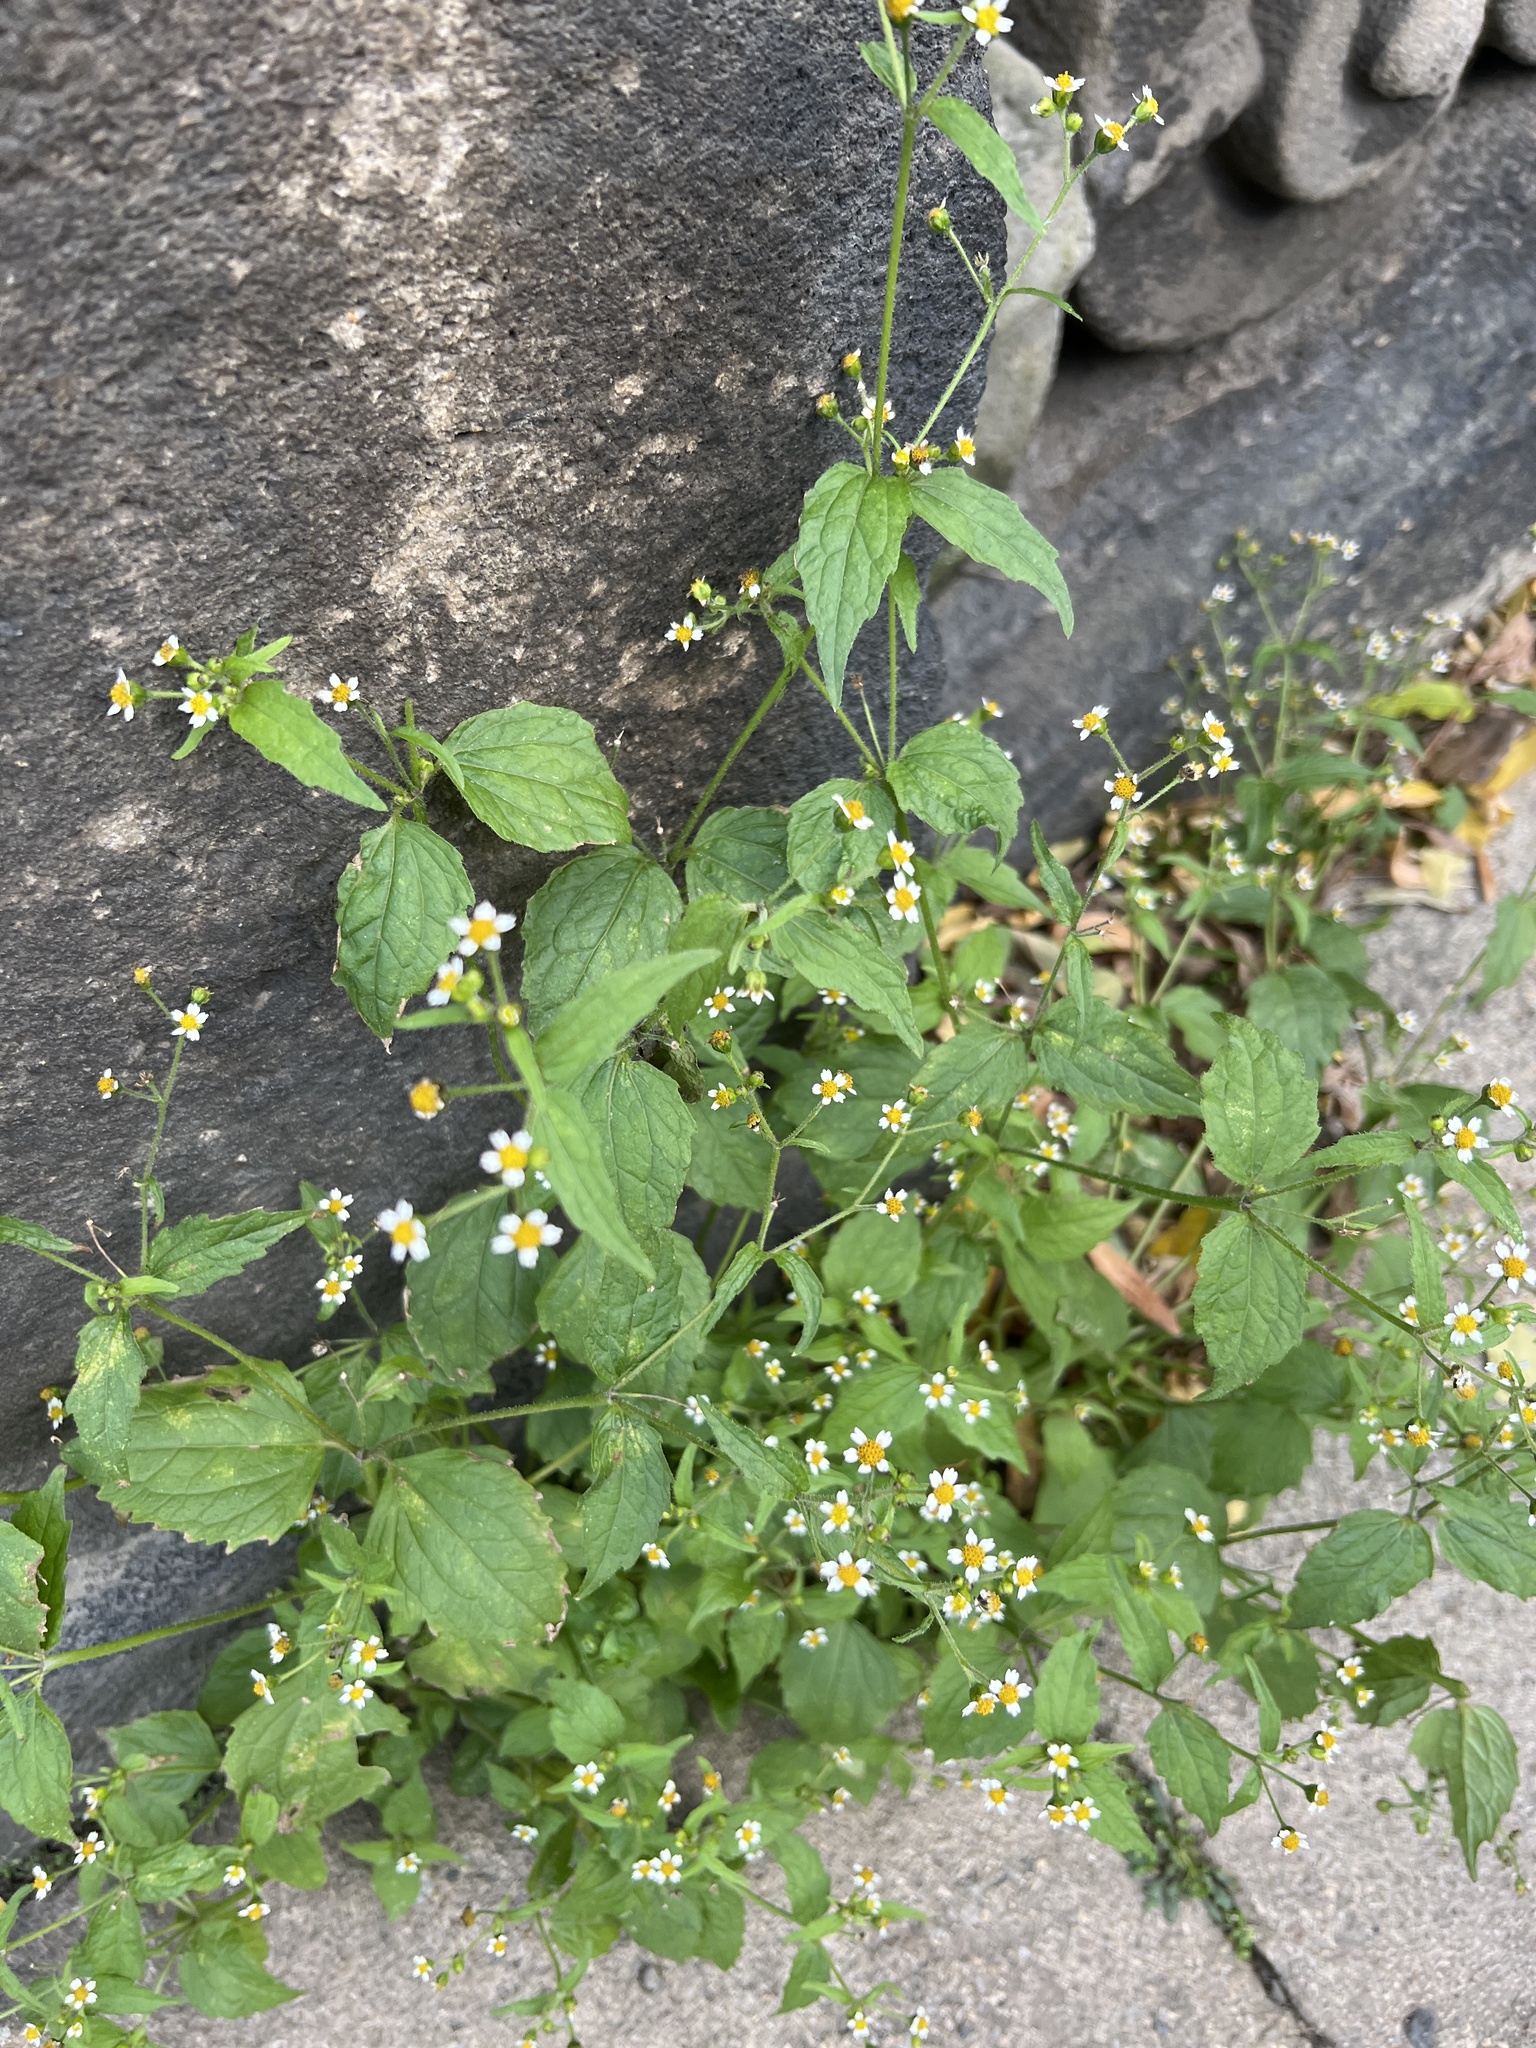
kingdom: Plantae
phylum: Tracheophyta
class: Magnoliopsida
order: Asterales
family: Asteraceae
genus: Galinsoga
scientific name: Galinsoga quadriradiata
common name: Shaggy soldier
